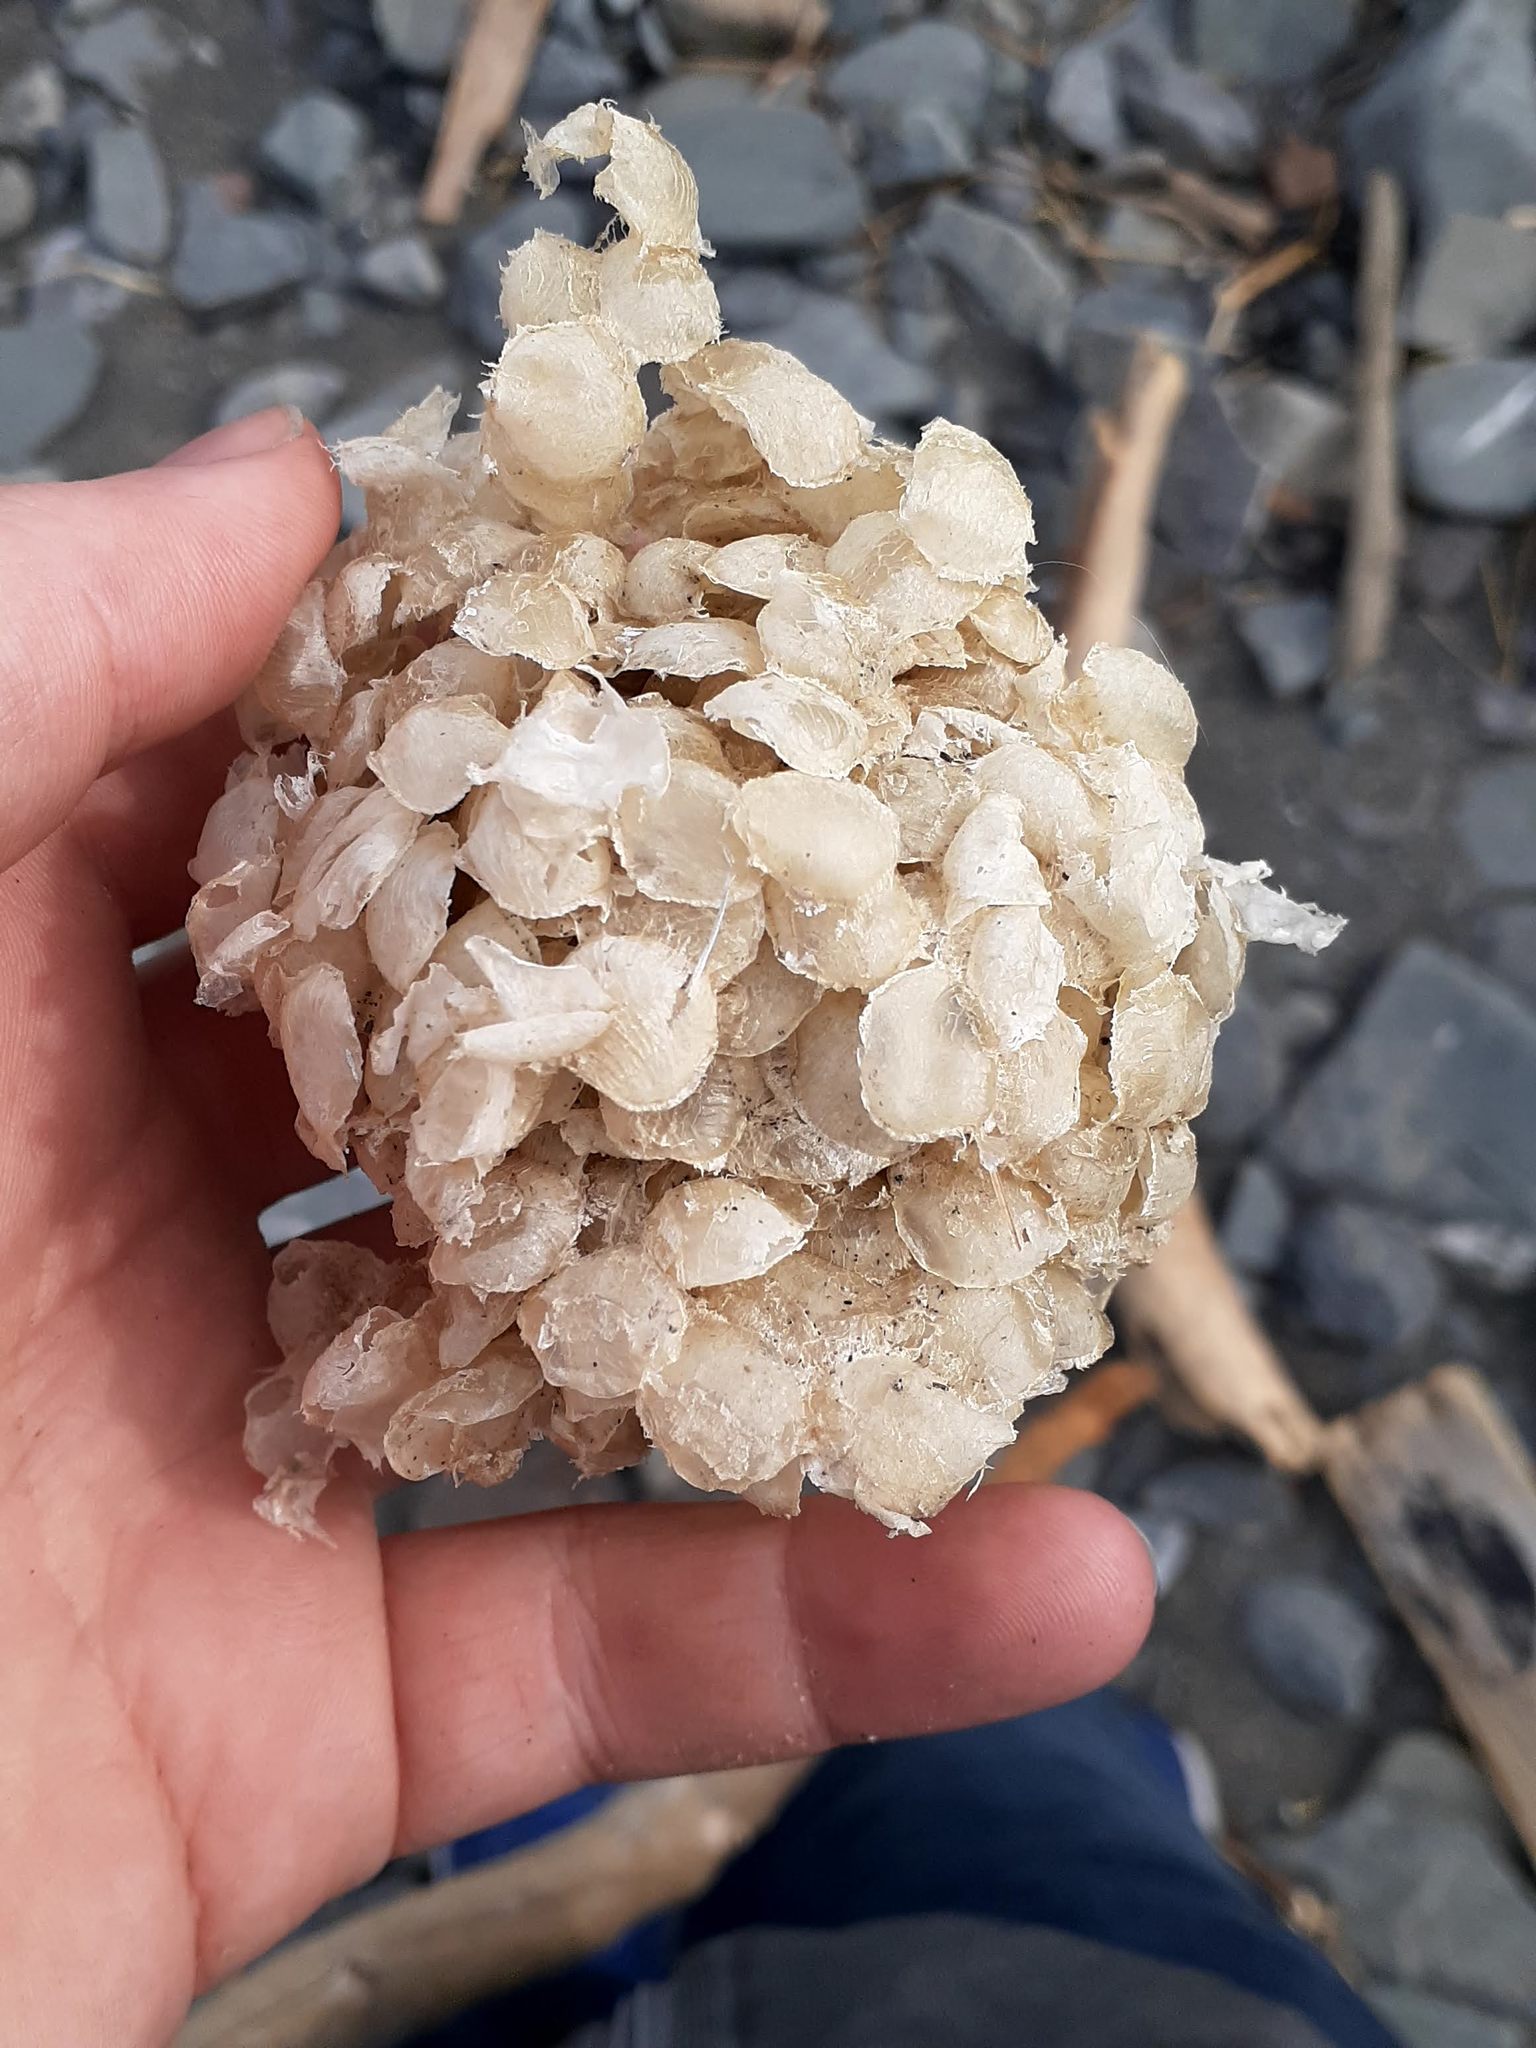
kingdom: Animalia
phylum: Mollusca
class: Gastropoda
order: Neogastropoda
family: Buccinidae
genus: Buccinum
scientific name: Buccinum undatum
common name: Common whelk
